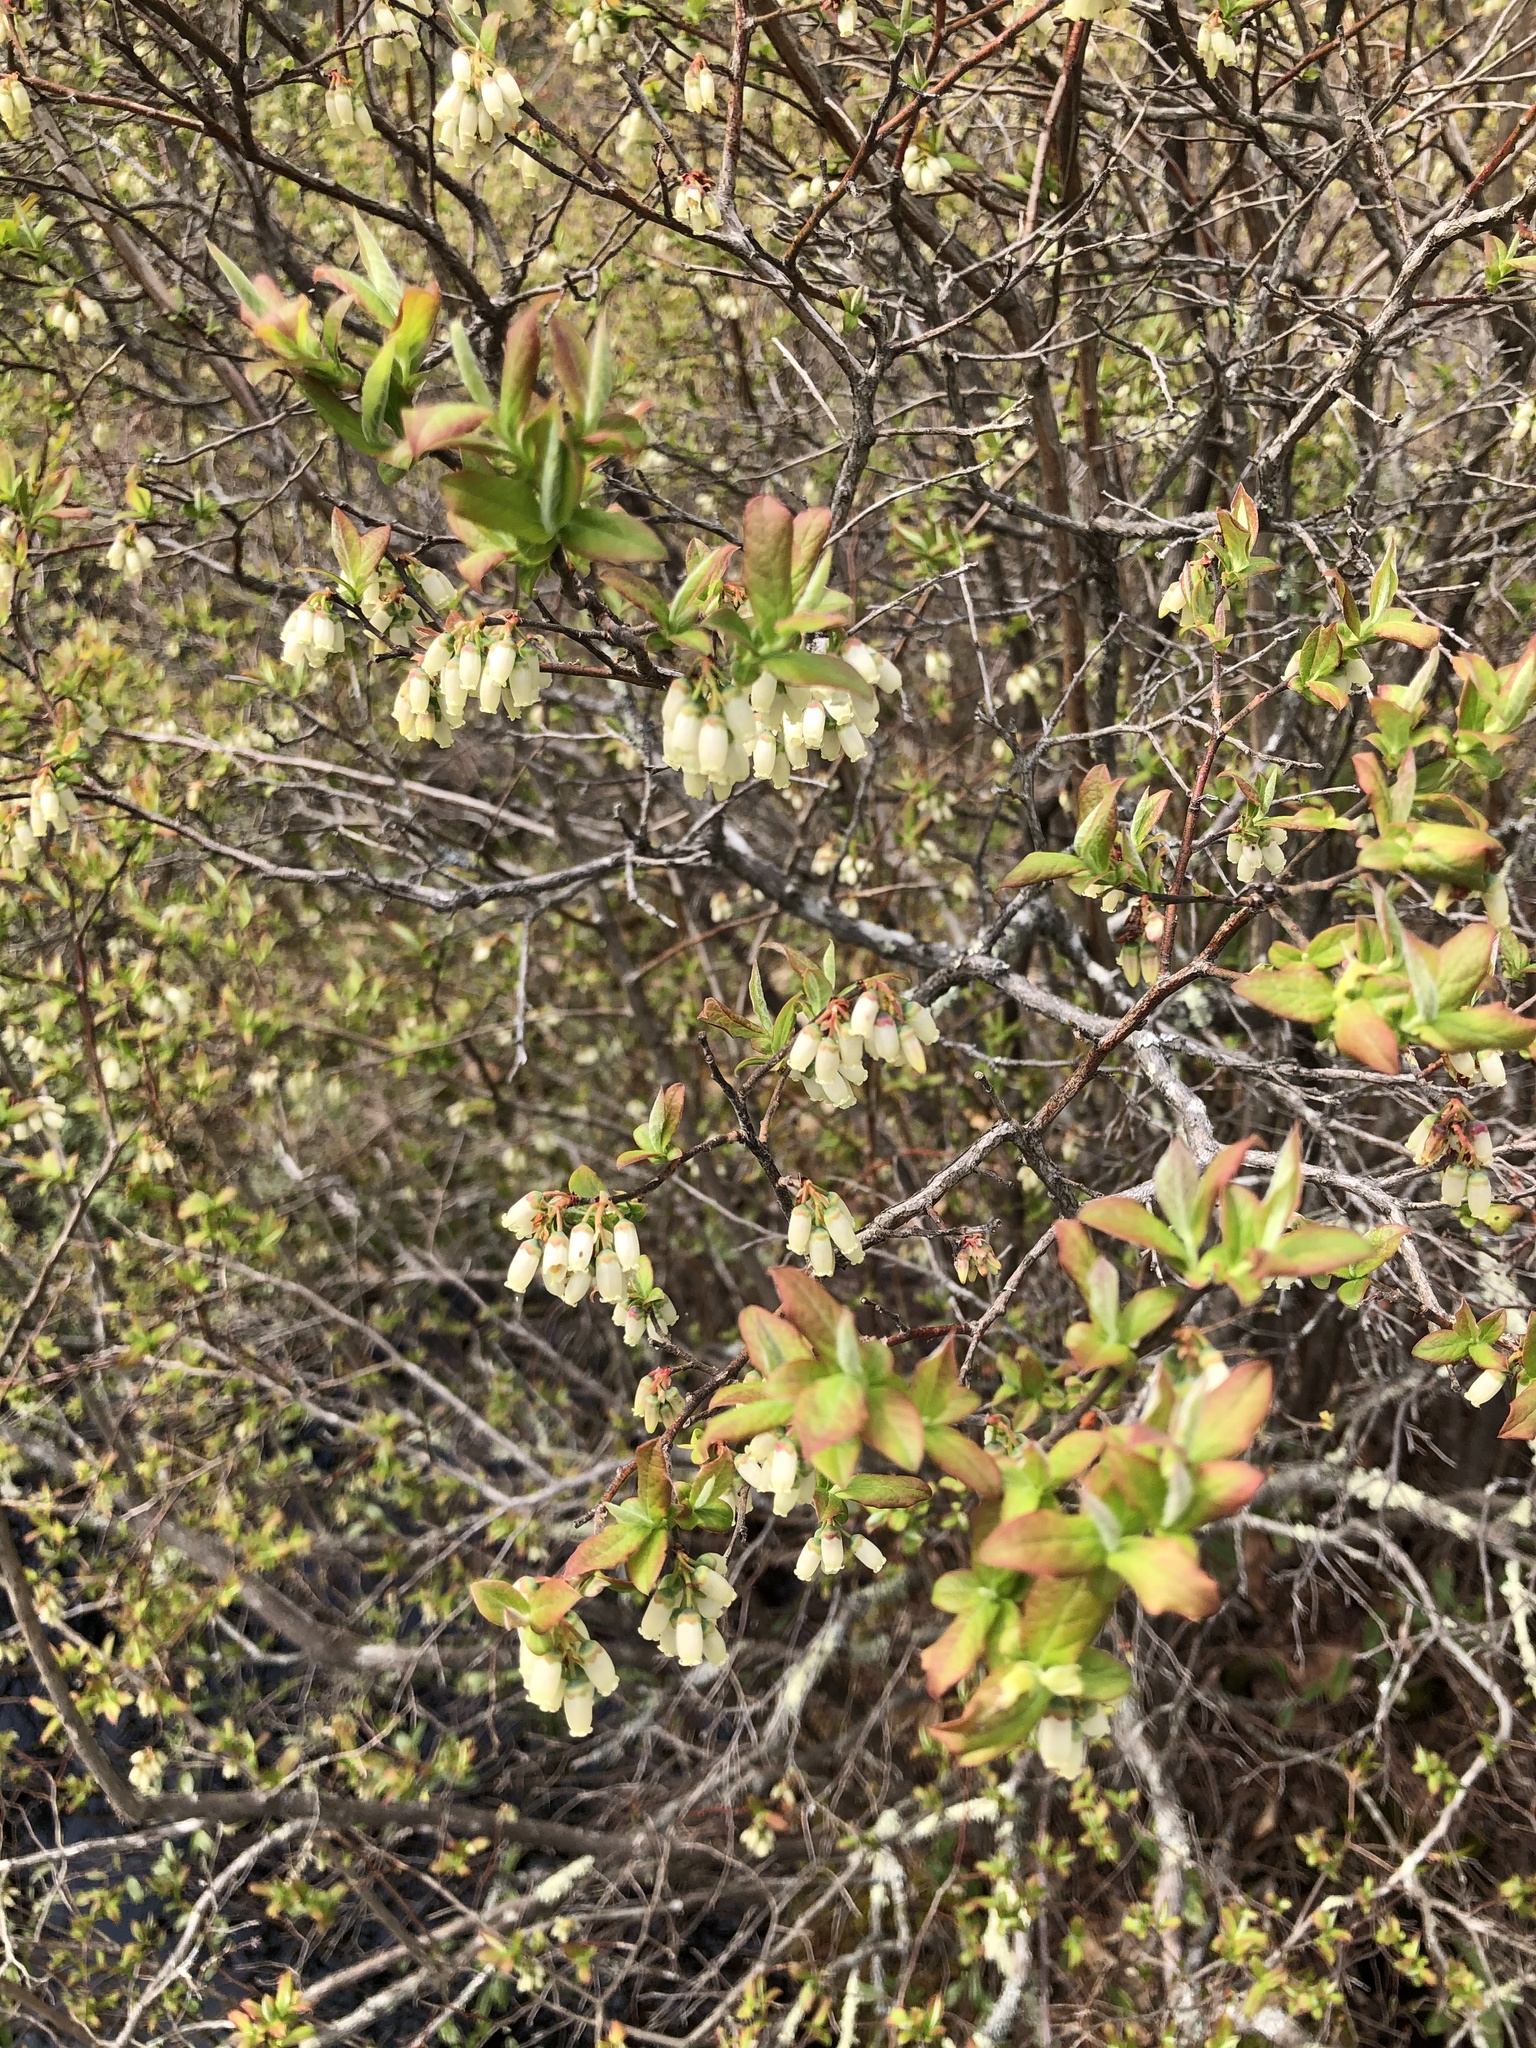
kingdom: Plantae
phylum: Tracheophyta
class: Magnoliopsida
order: Ericales
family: Ericaceae
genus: Vaccinium
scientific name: Vaccinium corymbosum
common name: Blueberry
